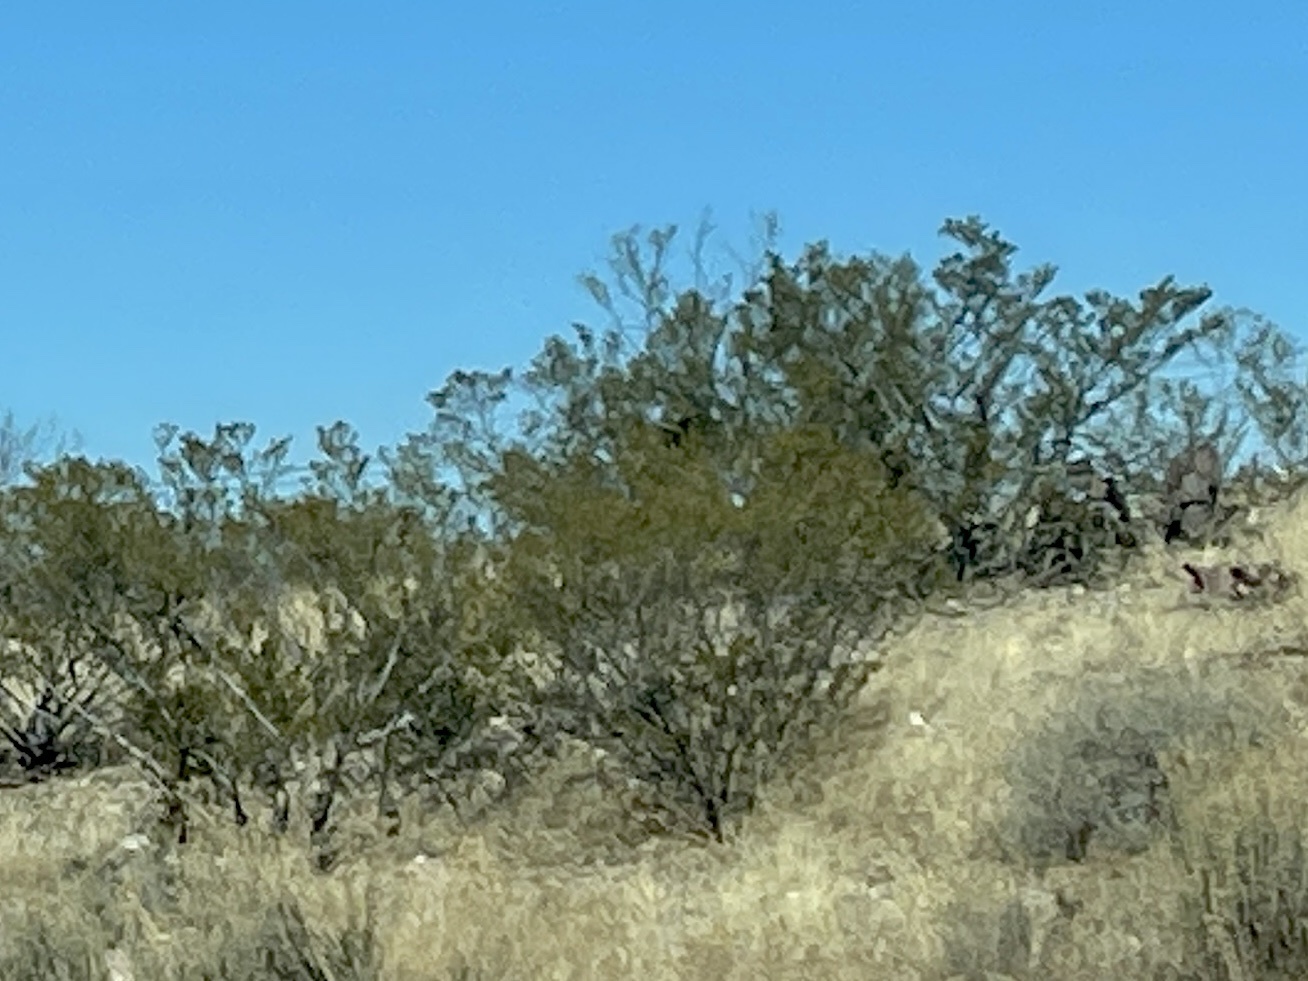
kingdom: Plantae
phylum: Tracheophyta
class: Magnoliopsida
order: Zygophyllales
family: Zygophyllaceae
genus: Larrea
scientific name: Larrea tridentata
